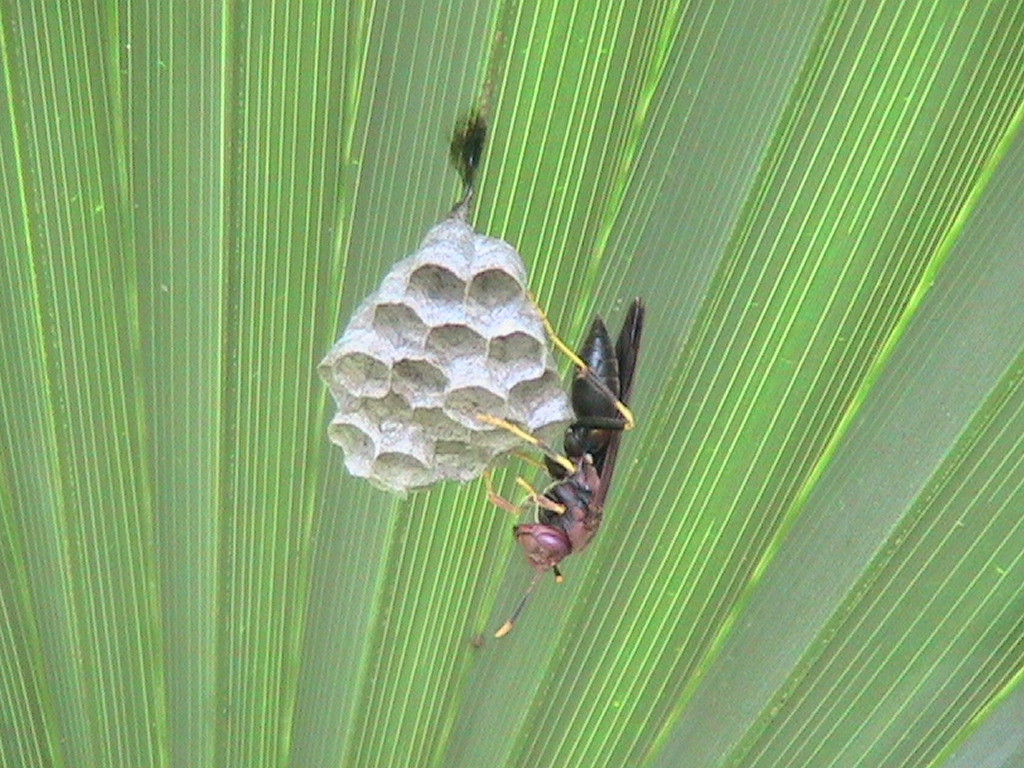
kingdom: Animalia
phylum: Arthropoda
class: Insecta
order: Hymenoptera
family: Eumenidae
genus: Polistes
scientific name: Polistes annularis
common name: Ringed paper wasp
